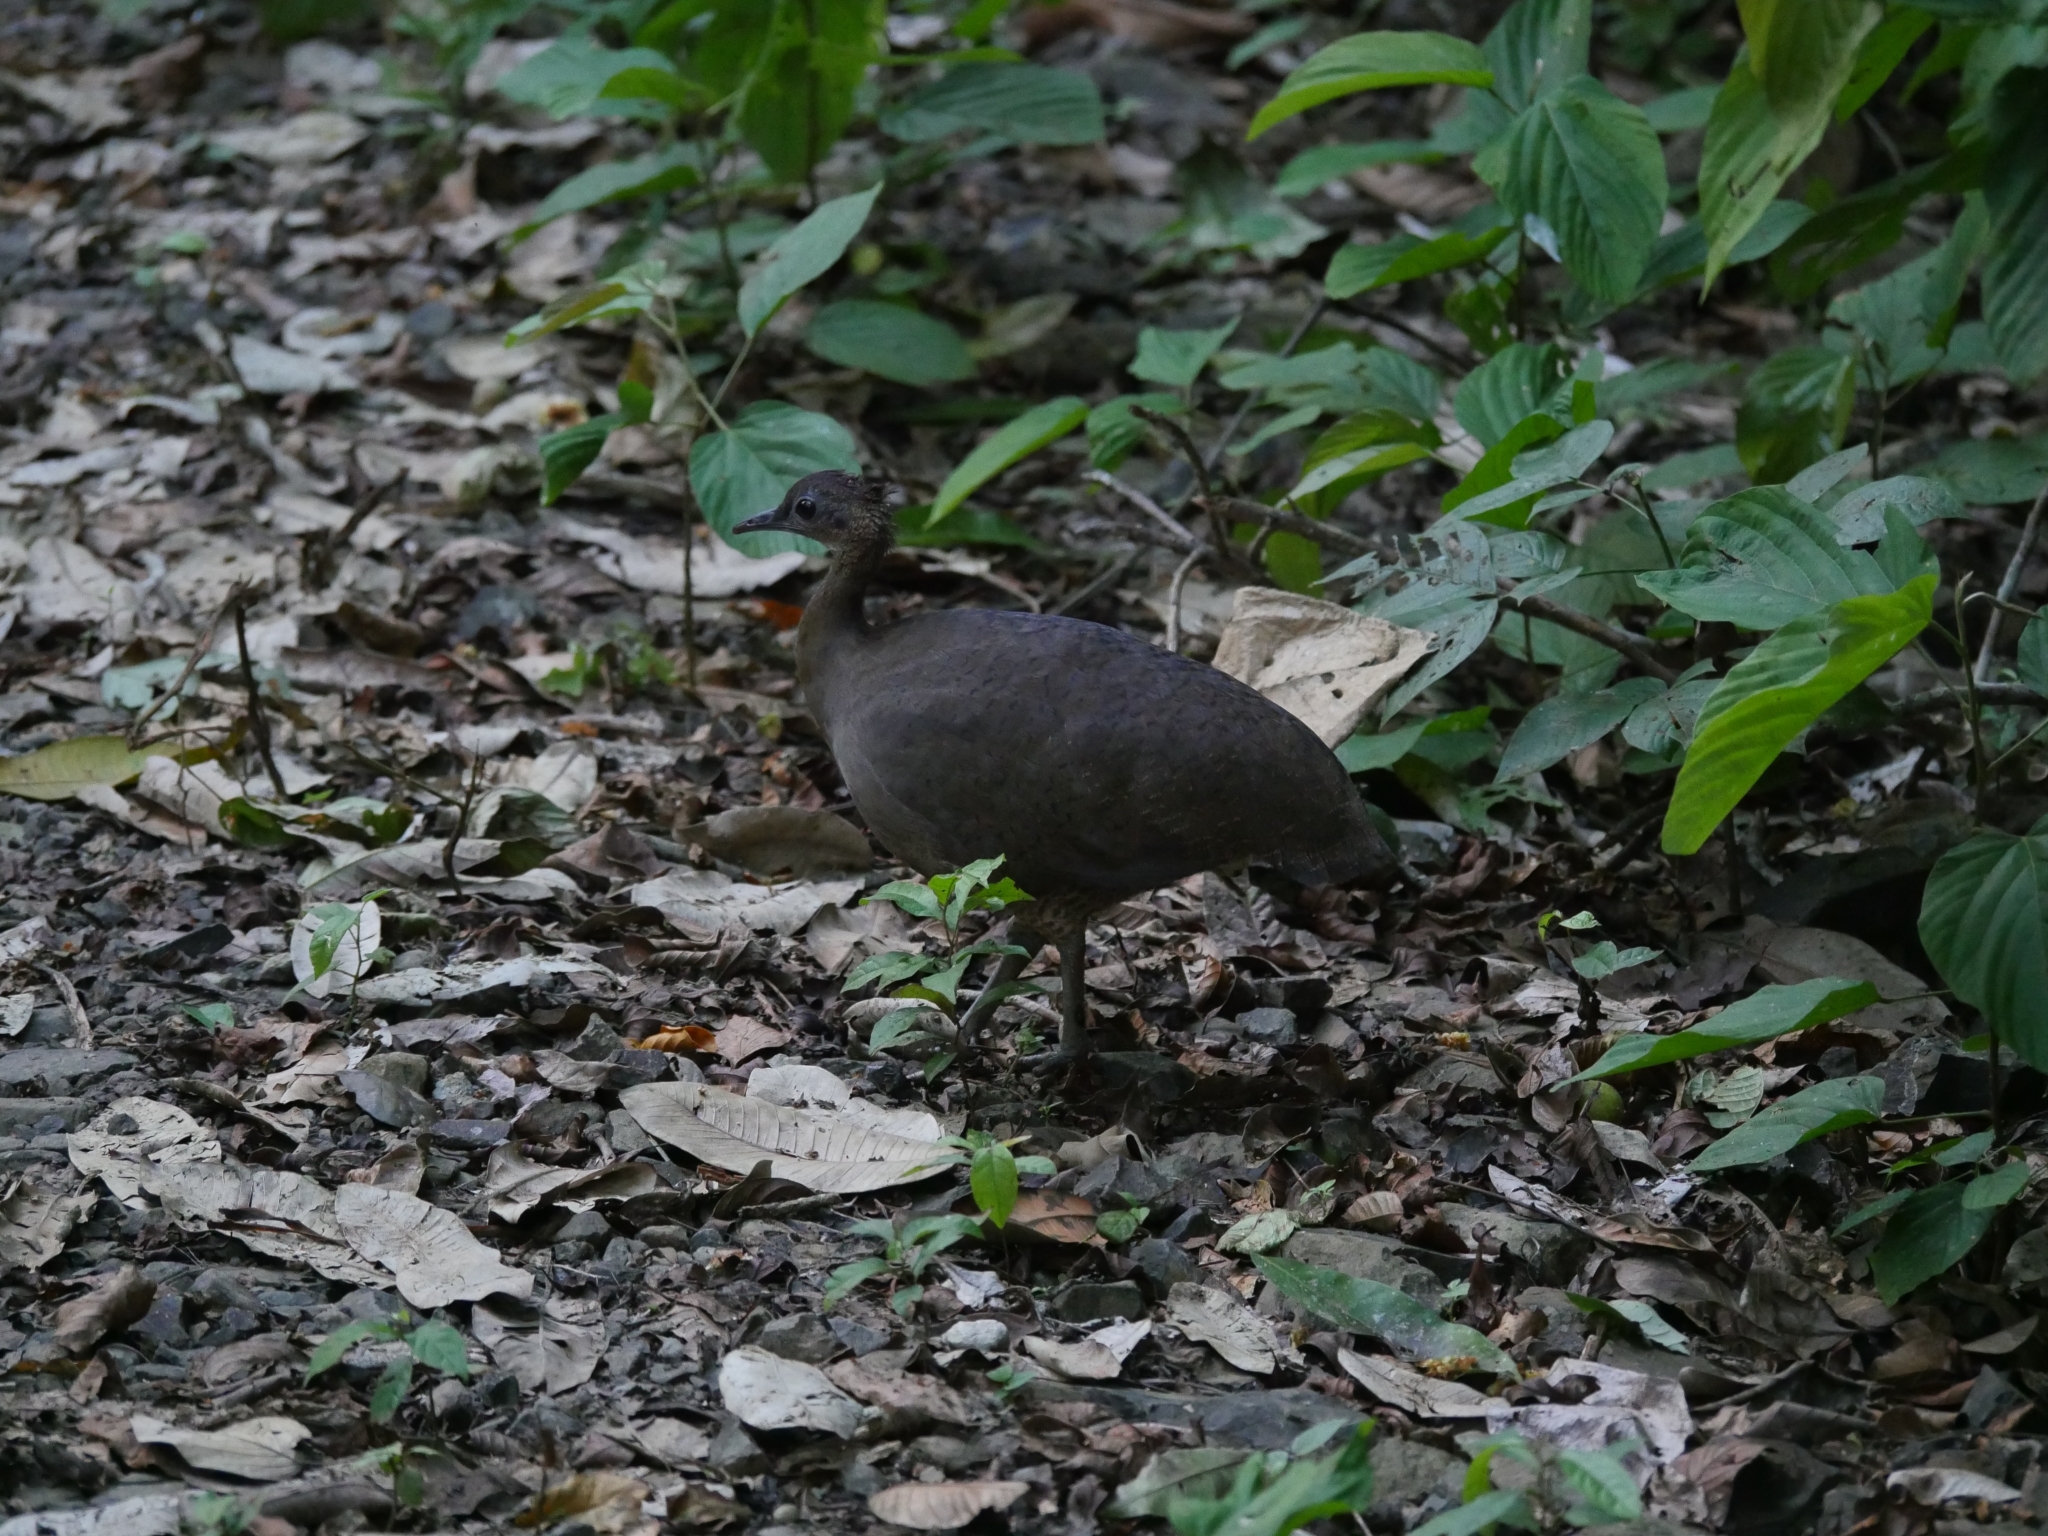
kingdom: Animalia
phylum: Chordata
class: Aves
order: Tinamiformes
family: Tinamidae
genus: Tinamus
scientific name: Tinamus major
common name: Great tinamou
